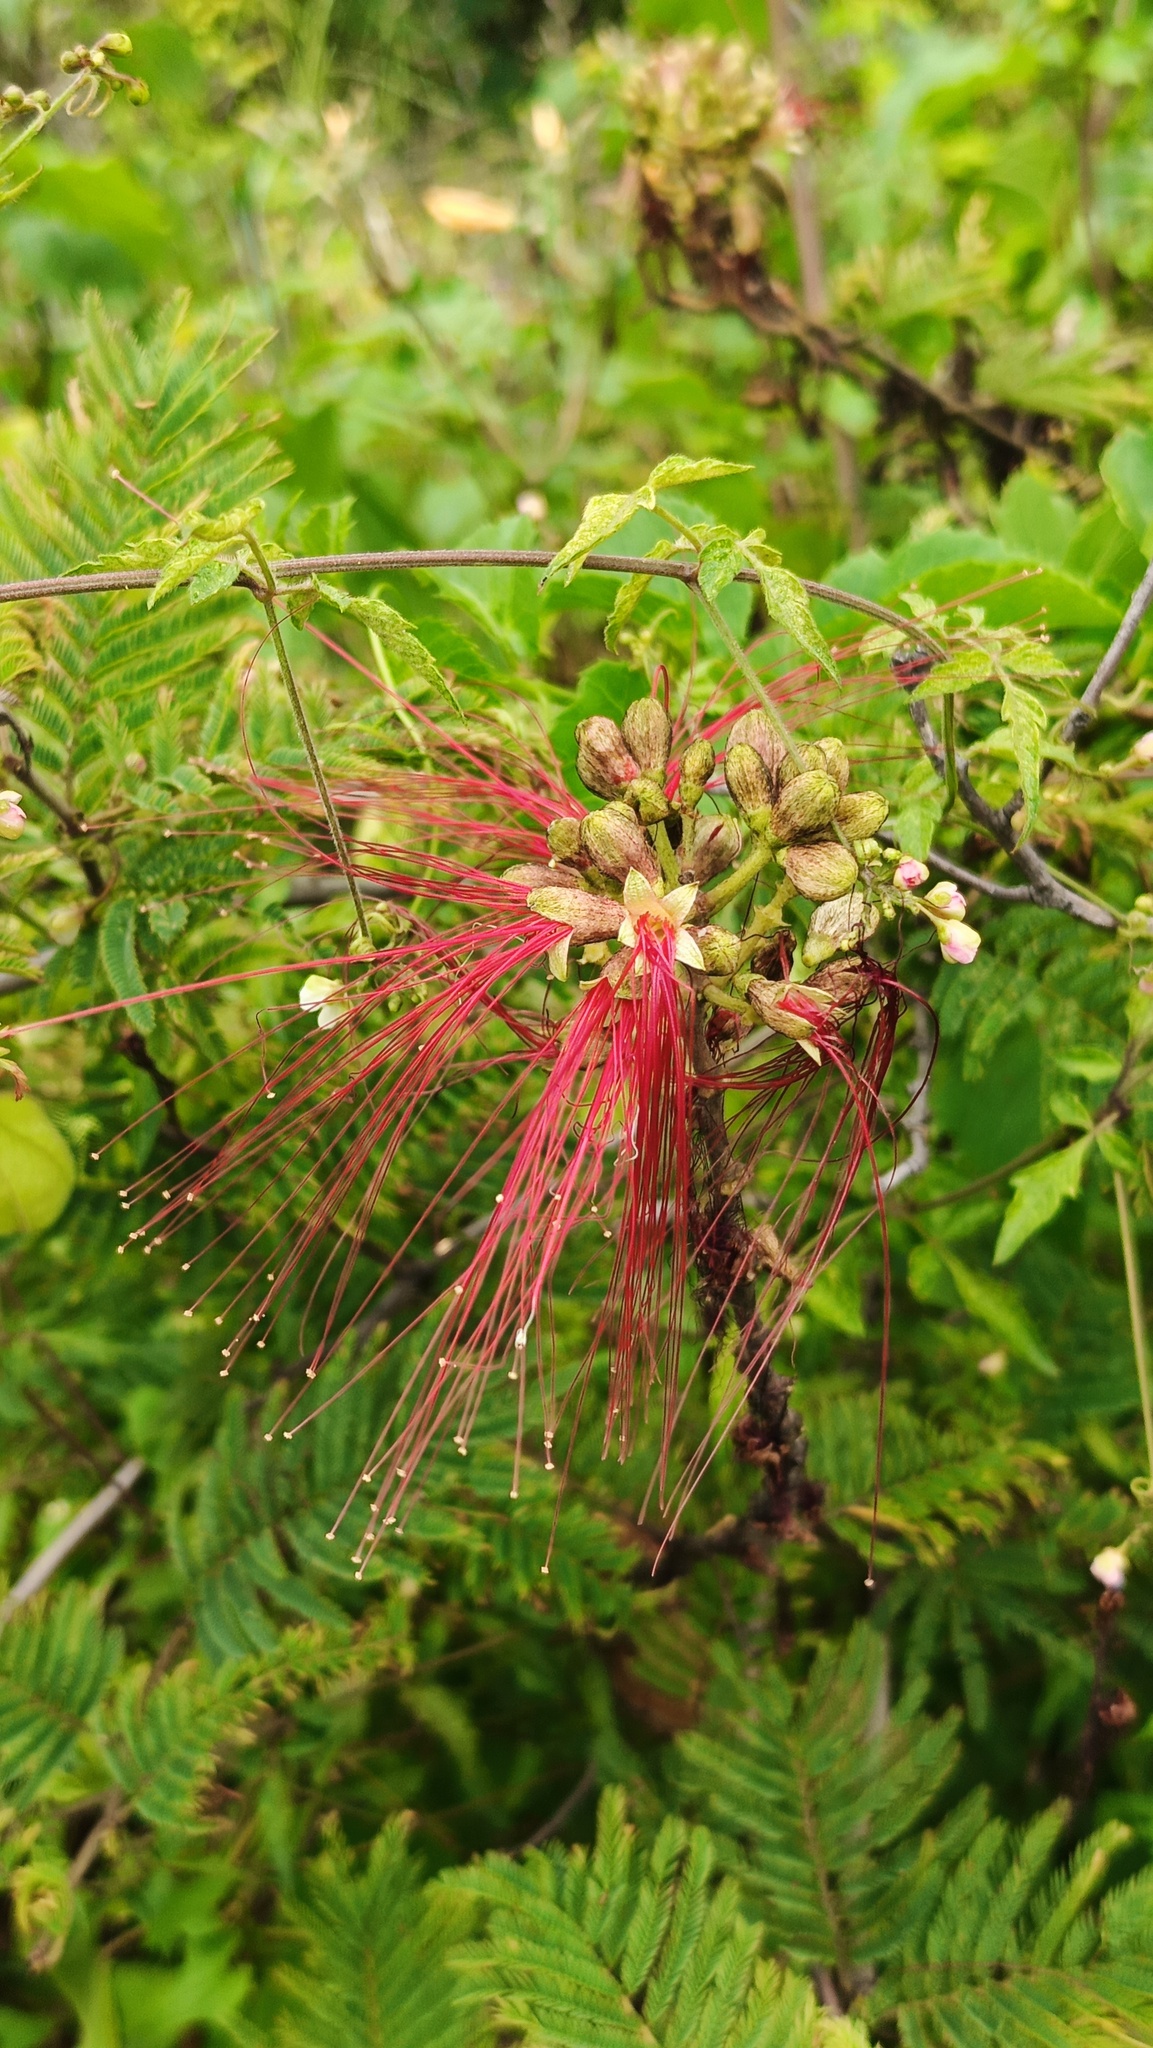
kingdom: Plantae
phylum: Tracheophyta
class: Magnoliopsida
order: Fabales
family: Fabaceae
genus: Calliandra
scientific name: Calliandra houstoniana
